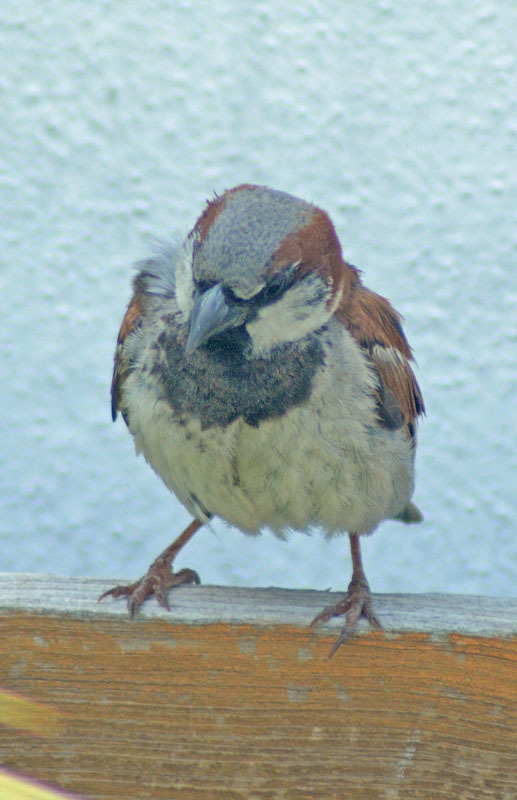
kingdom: Animalia
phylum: Chordata
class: Aves
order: Passeriformes
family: Passeridae
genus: Passer
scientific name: Passer domesticus
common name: House sparrow
